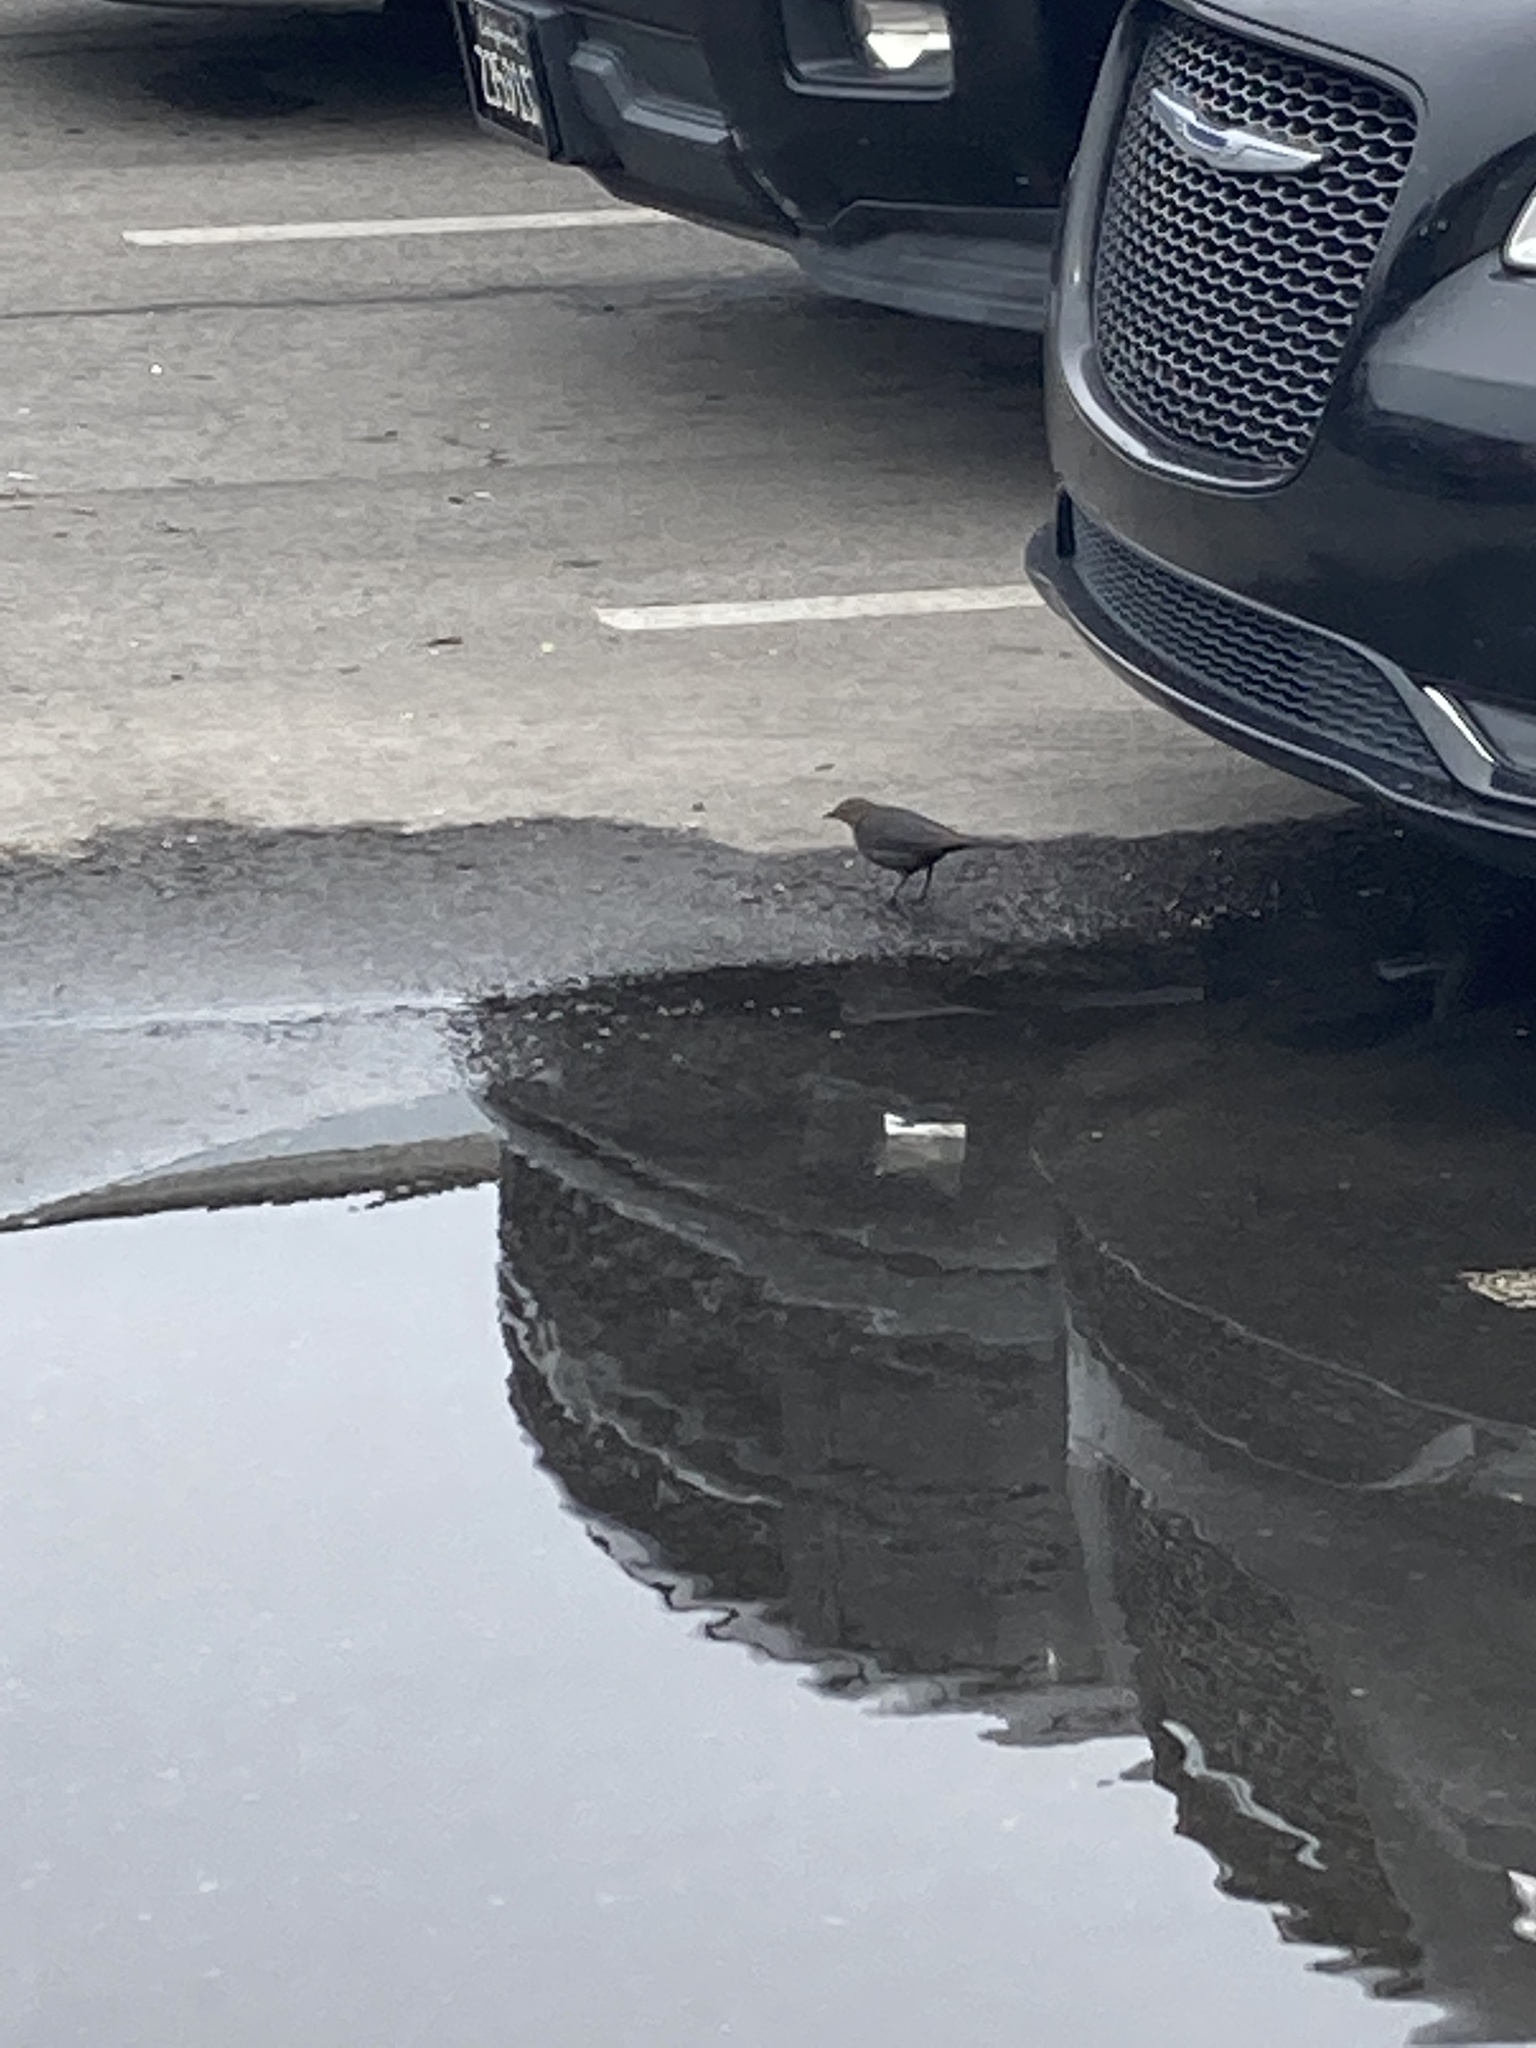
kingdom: Animalia
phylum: Chordata
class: Aves
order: Passeriformes
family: Icteridae
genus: Euphagus
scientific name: Euphagus cyanocephalus
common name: Brewer's blackbird
